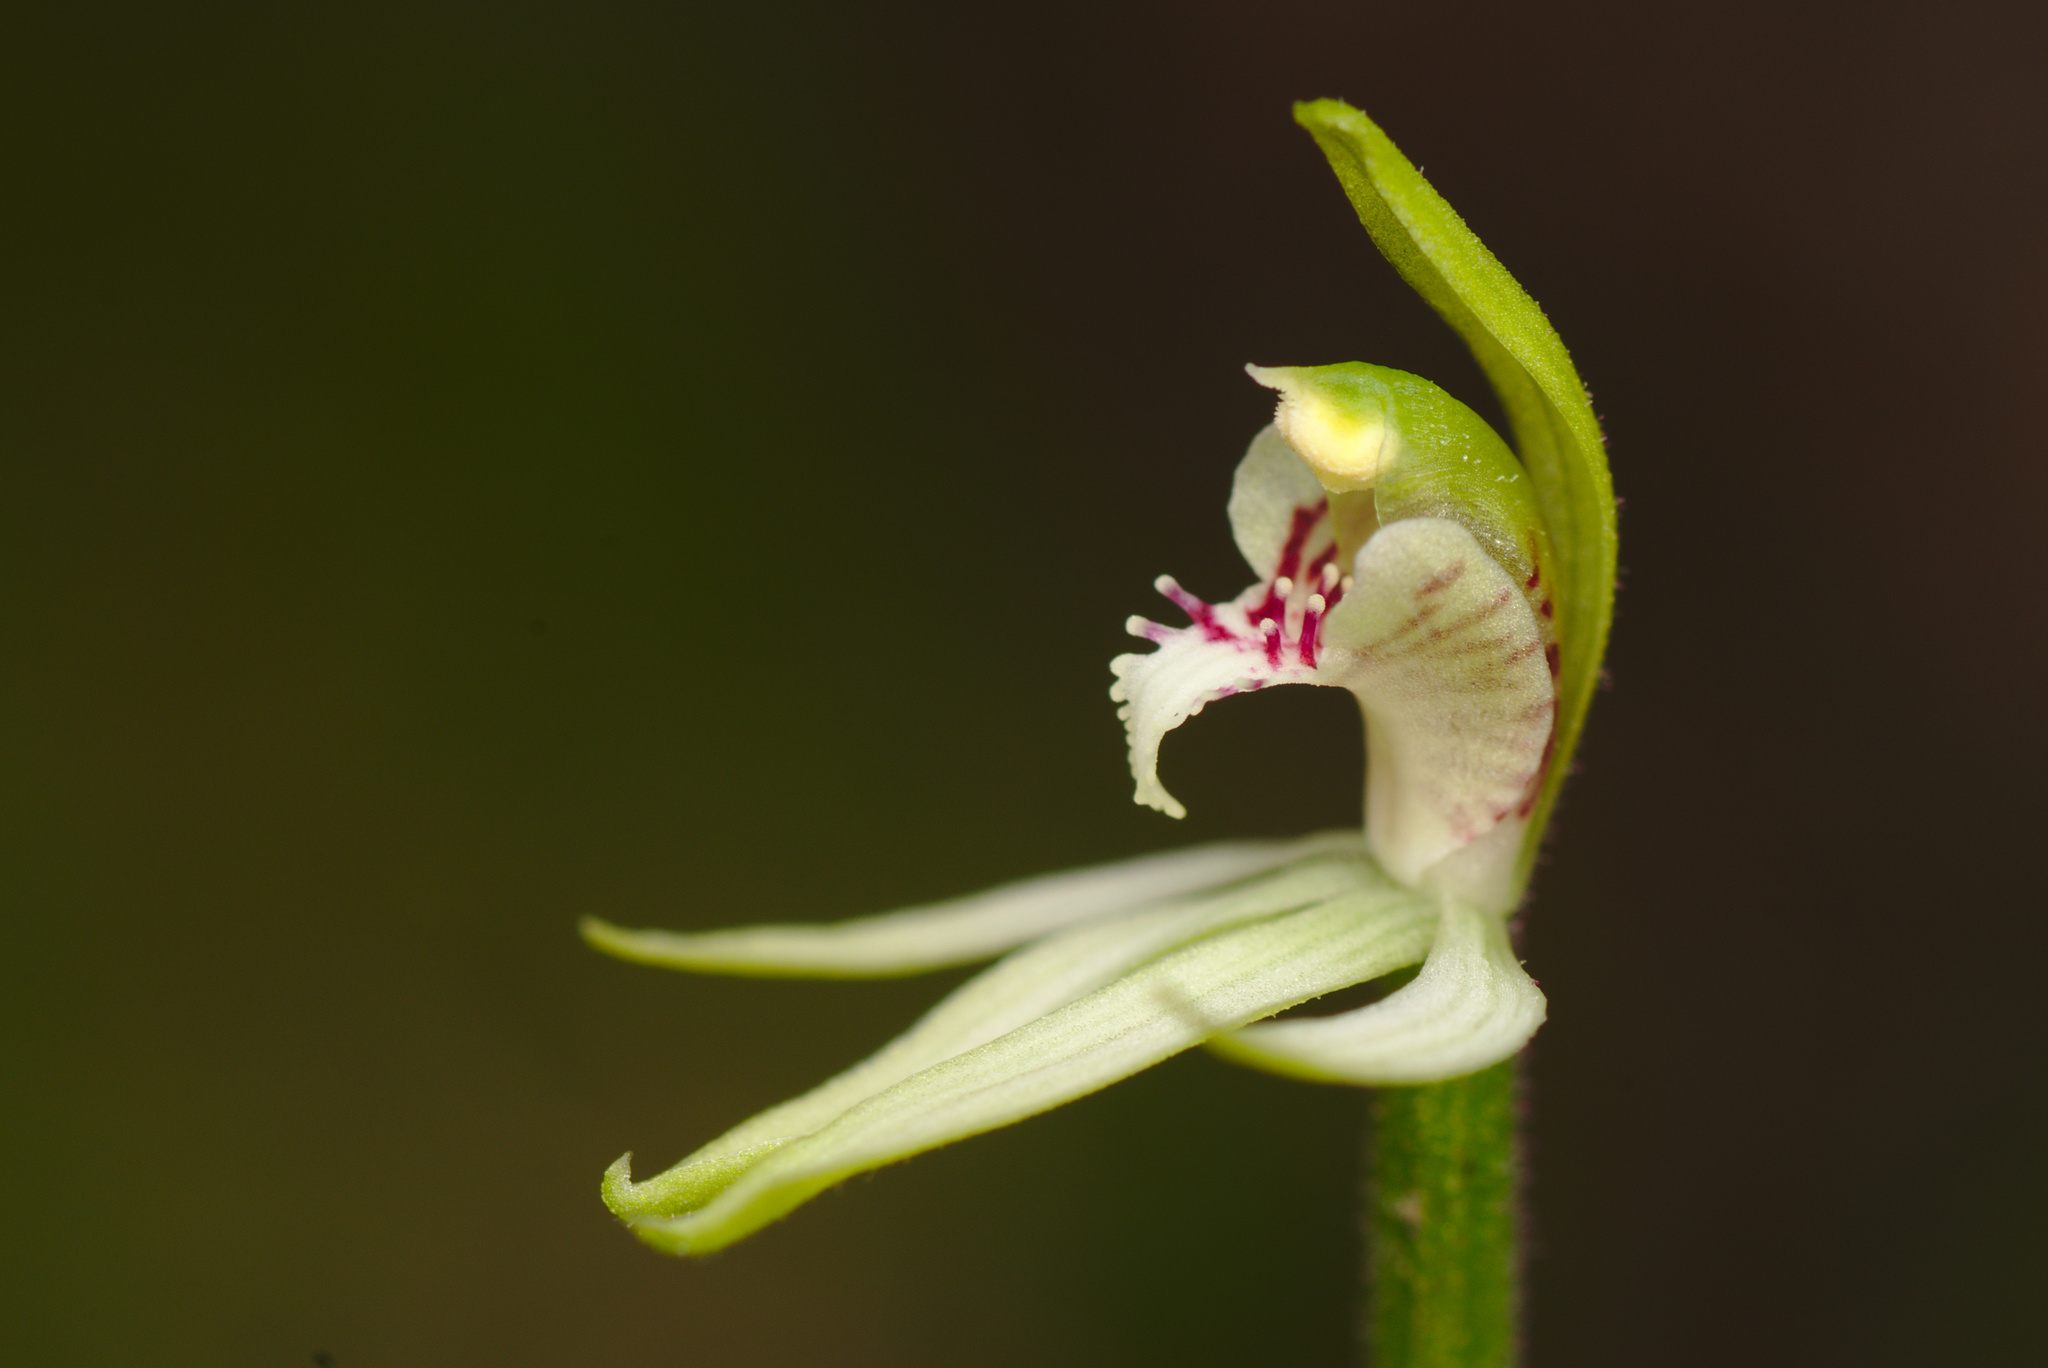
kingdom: Plantae
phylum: Tracheophyta
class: Liliopsida
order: Asparagales
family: Orchidaceae
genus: Caladenia
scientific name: Caladenia chlorostyla
